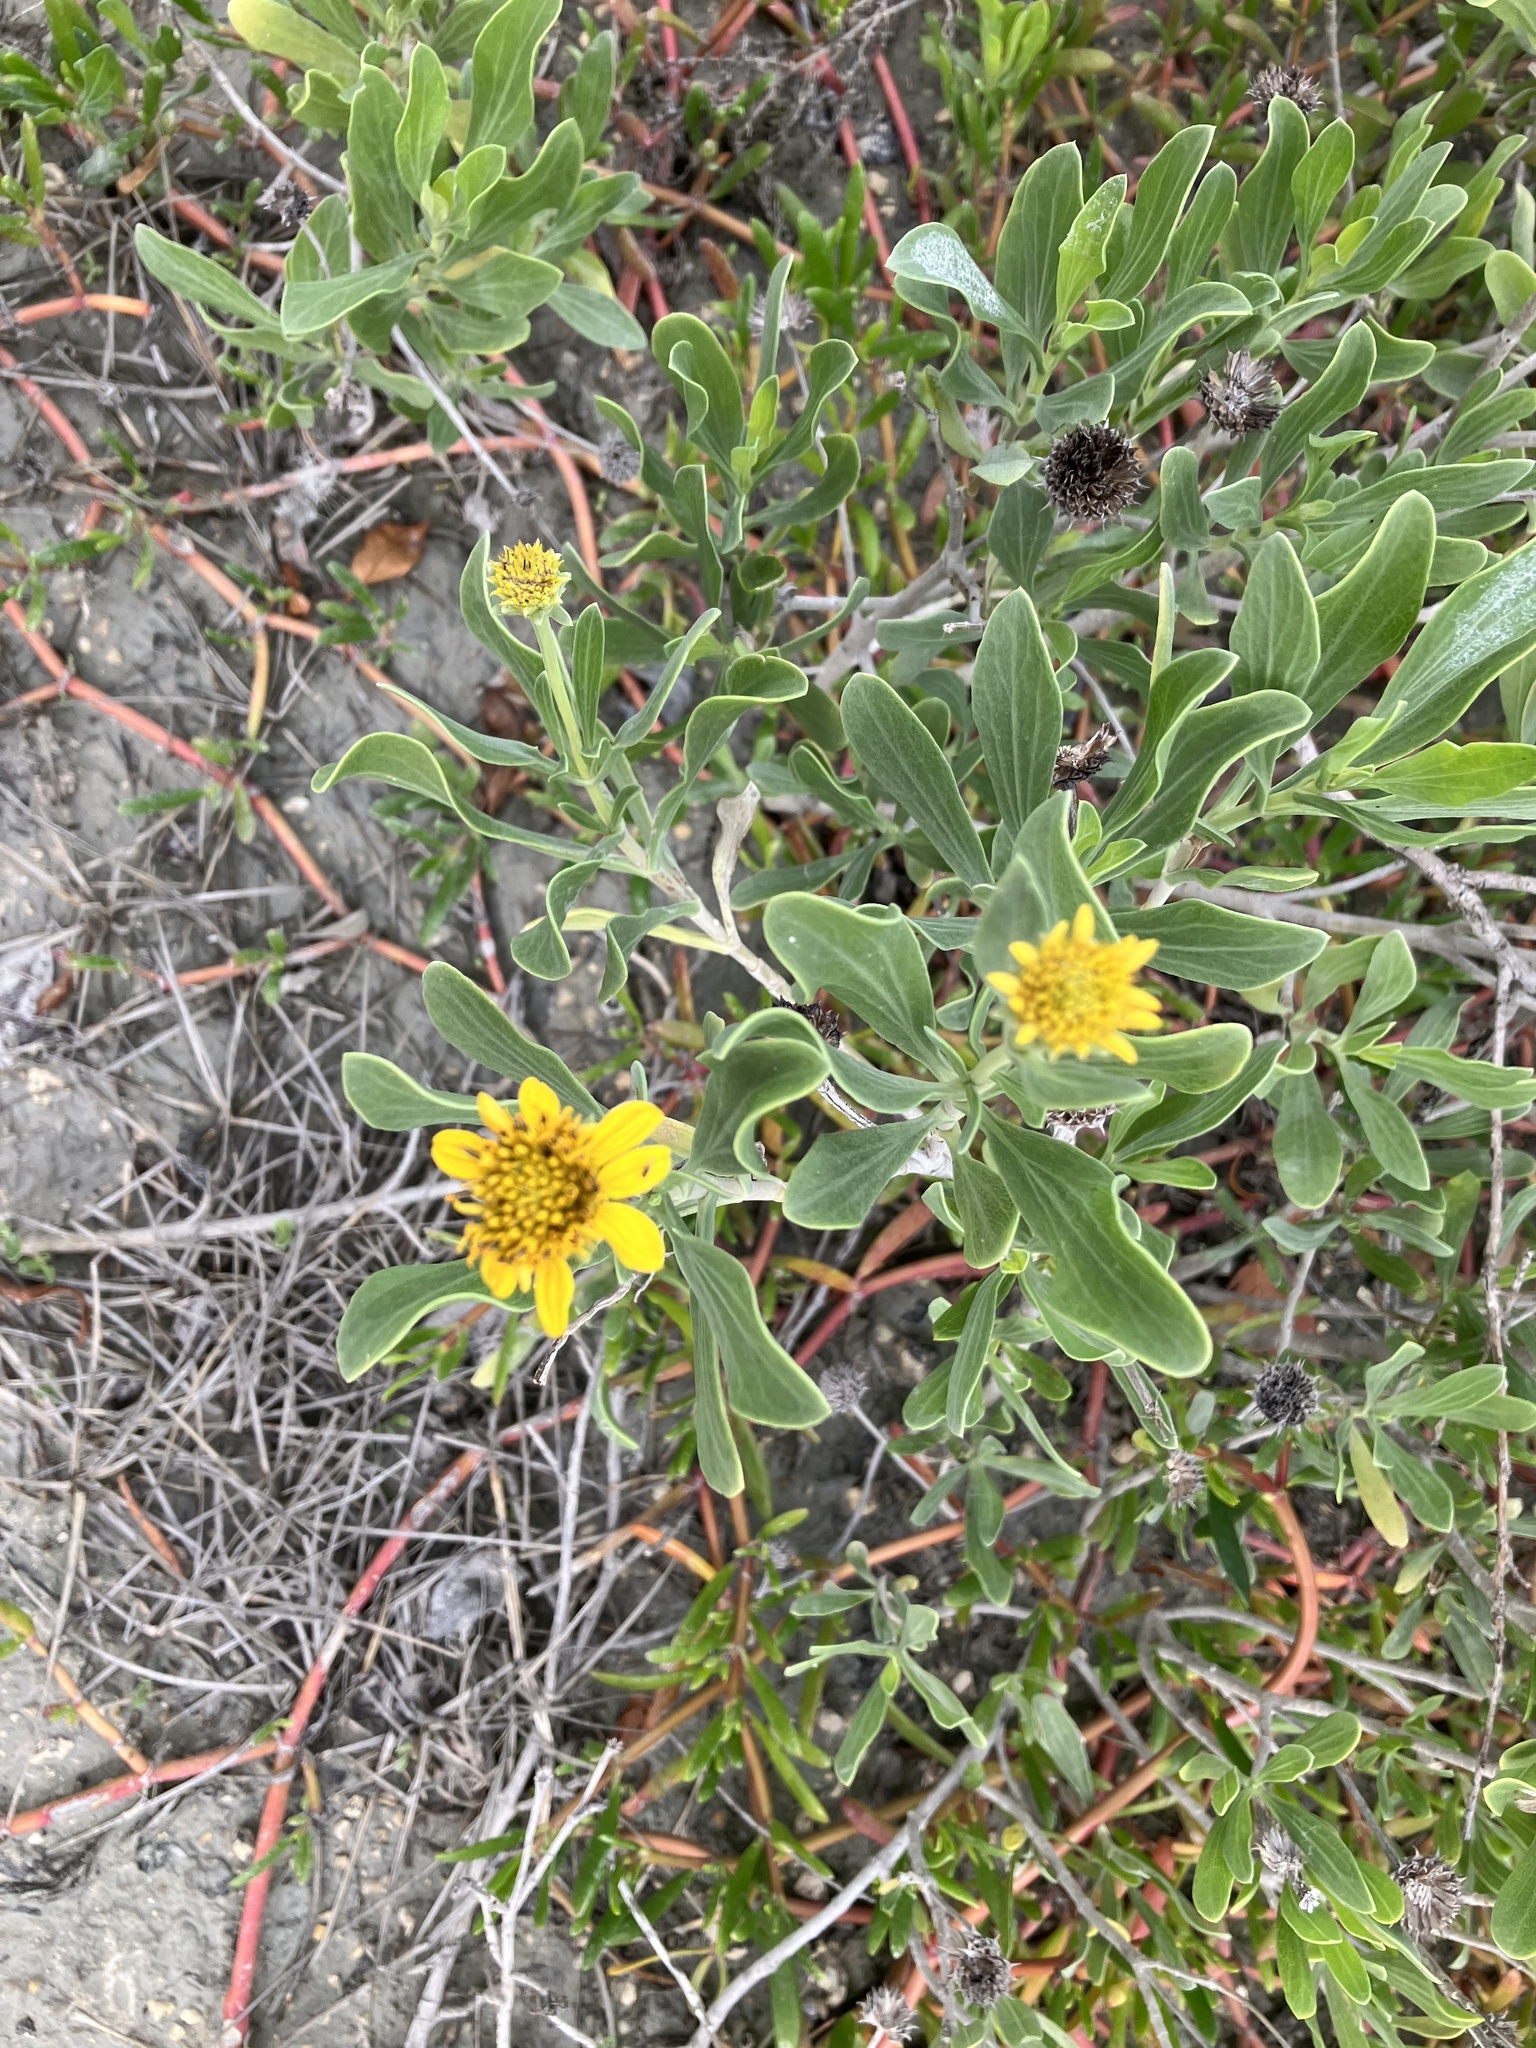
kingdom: Plantae
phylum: Tracheophyta
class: Magnoliopsida
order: Asterales
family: Asteraceae
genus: Borrichia
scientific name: Borrichia arborescens
